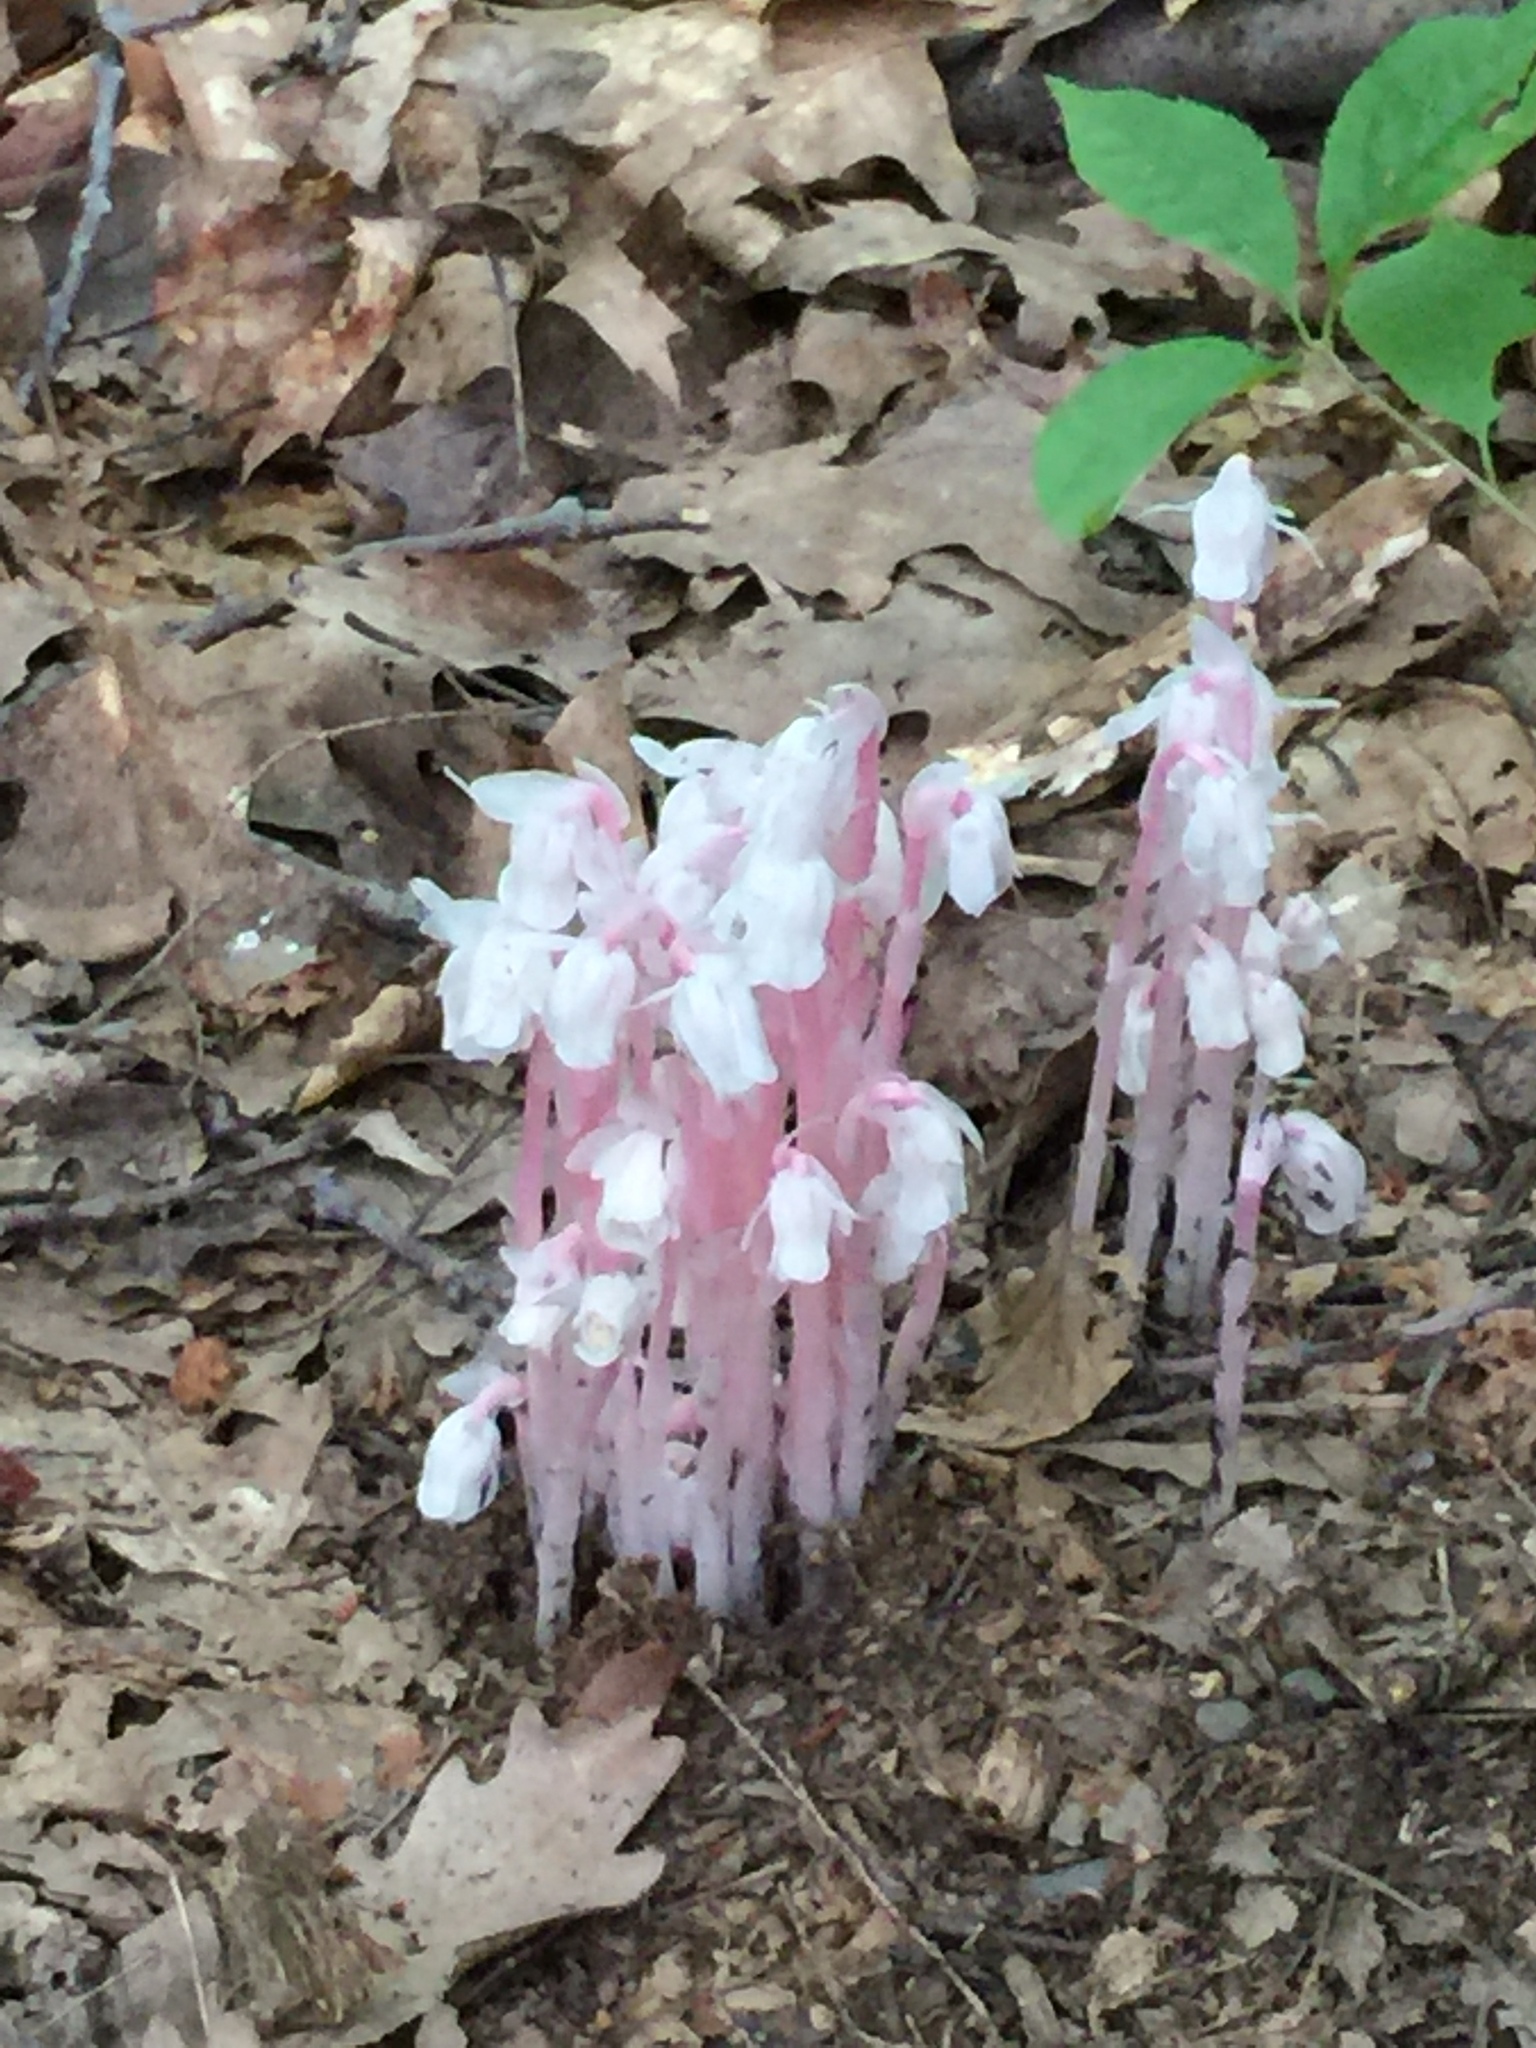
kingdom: Plantae
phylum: Tracheophyta
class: Magnoliopsida
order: Ericales
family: Ericaceae
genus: Monotropa
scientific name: Monotropa uniflora
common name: Convulsion root
